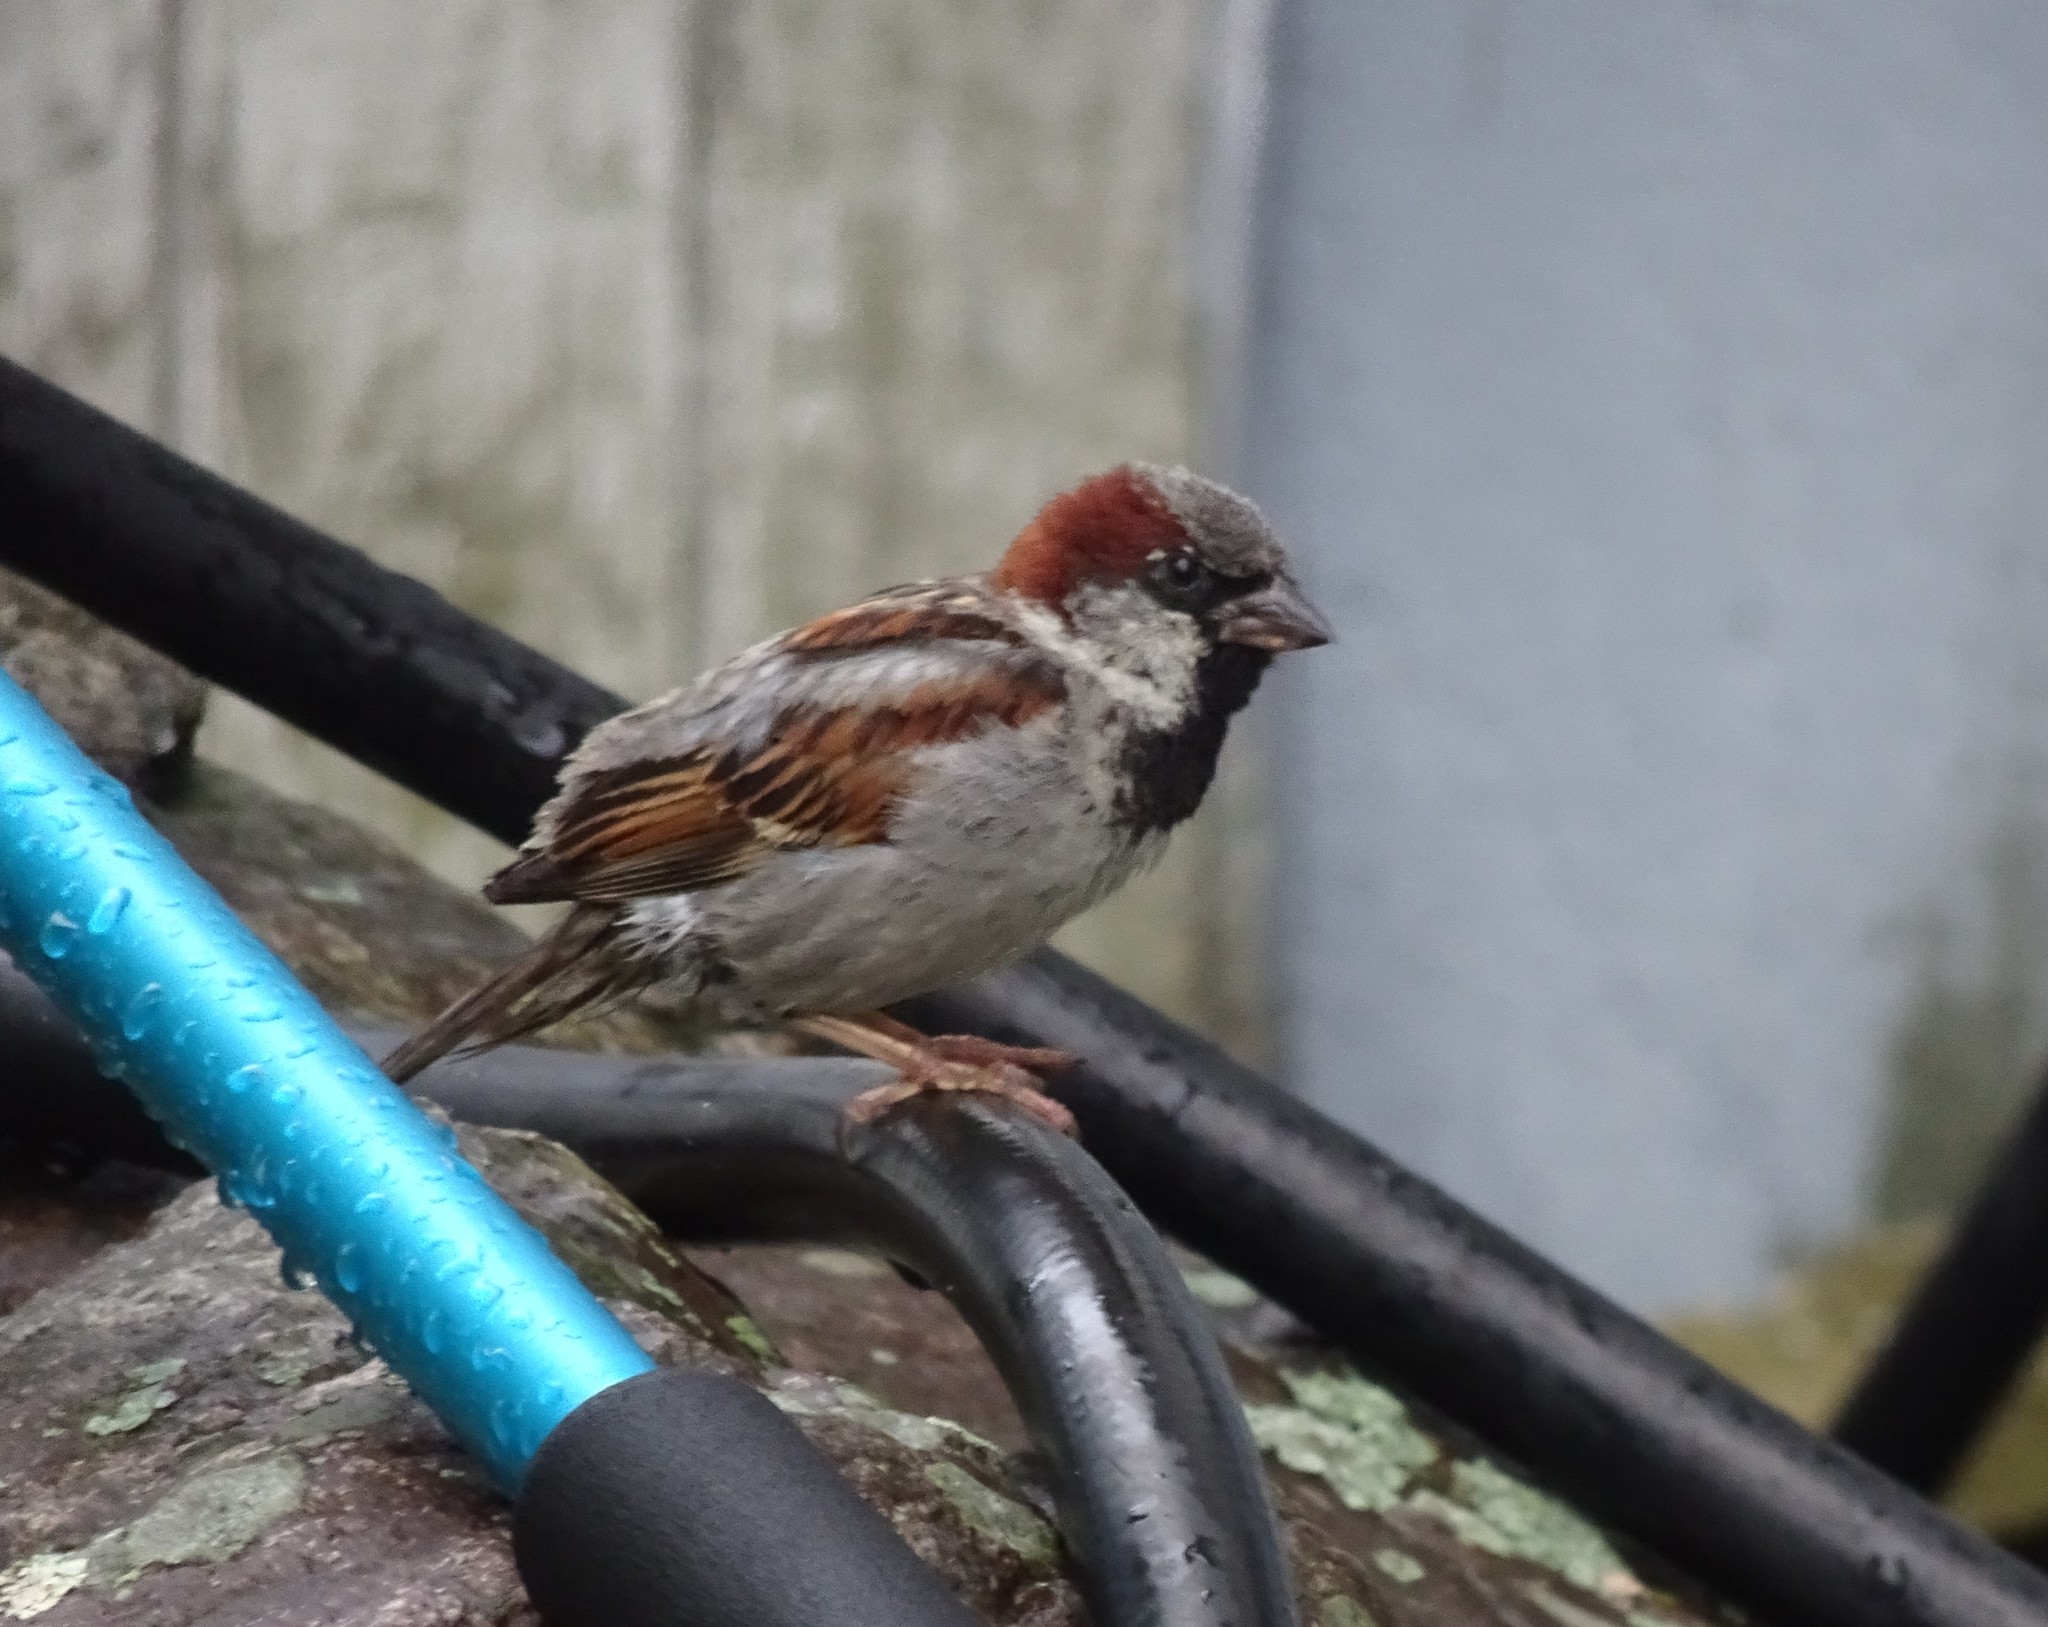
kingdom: Animalia
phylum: Chordata
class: Aves
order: Passeriformes
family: Passeridae
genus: Passer
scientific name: Passer domesticus
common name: House sparrow
